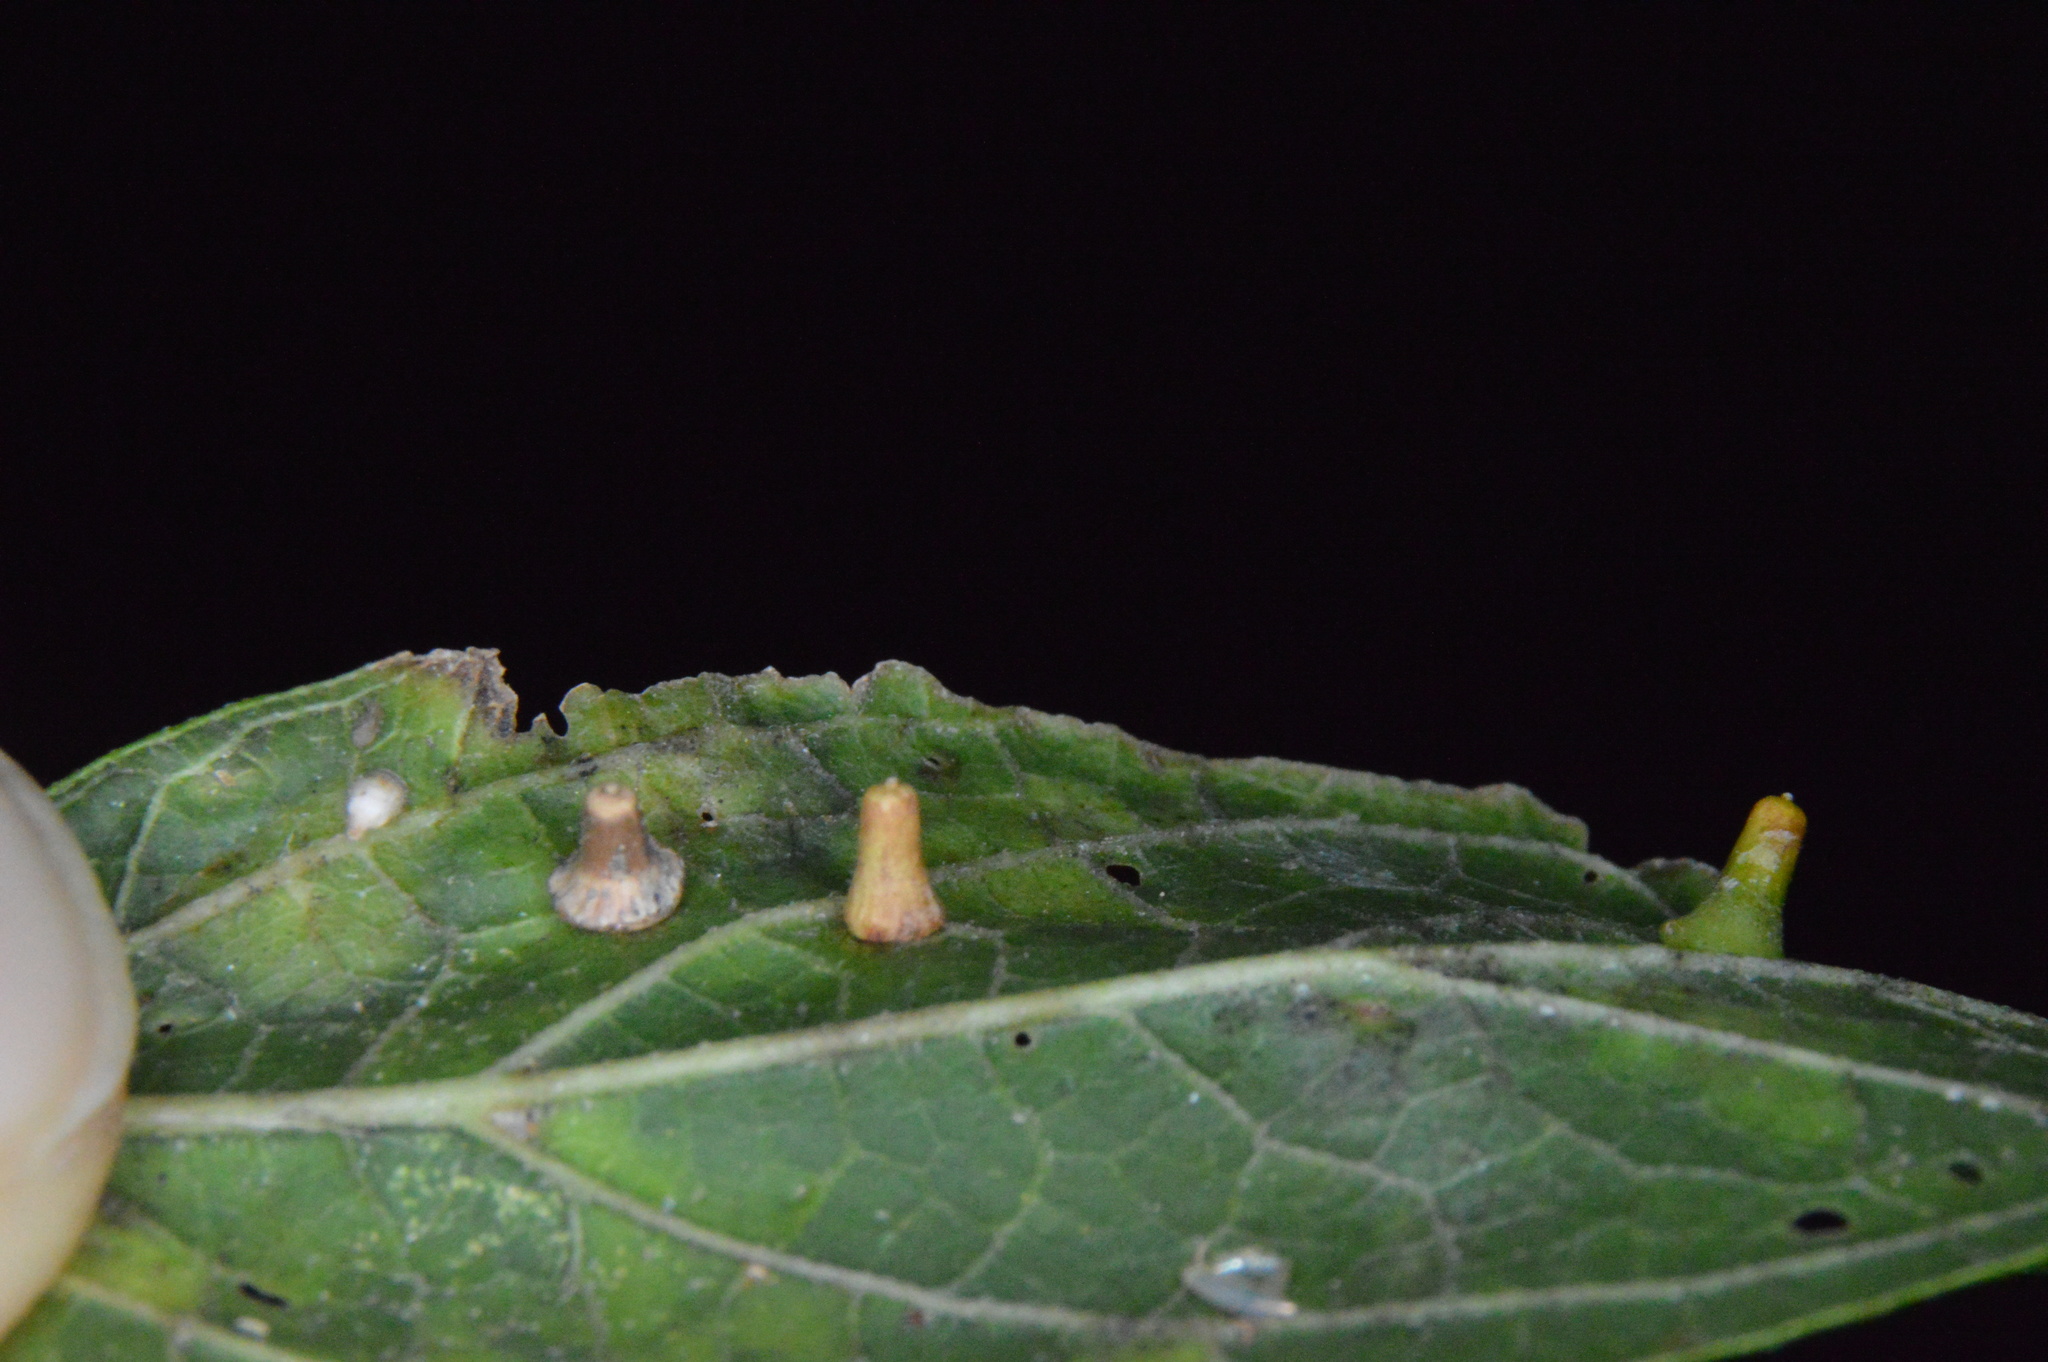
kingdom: Animalia
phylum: Arthropoda
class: Insecta
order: Diptera
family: Cecidomyiidae
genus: Celticecis
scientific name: Celticecis aciculata
